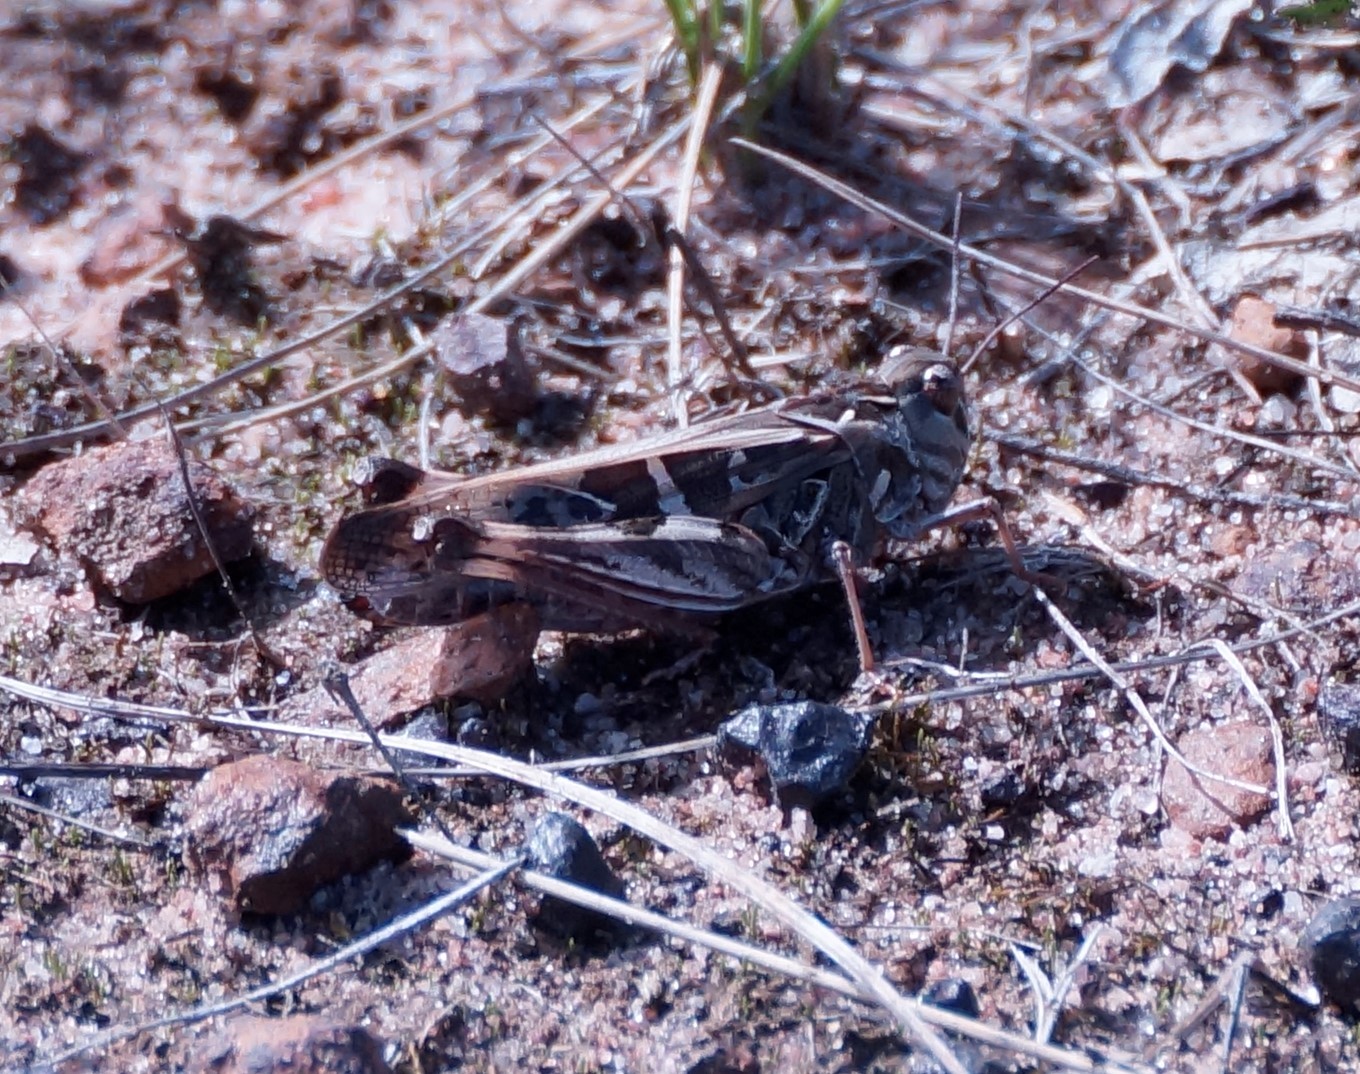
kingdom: Animalia
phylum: Arthropoda
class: Insecta
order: Orthoptera
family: Acrididae
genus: Oedaleus
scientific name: Oedaleus australis
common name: Eastern oedaleus
